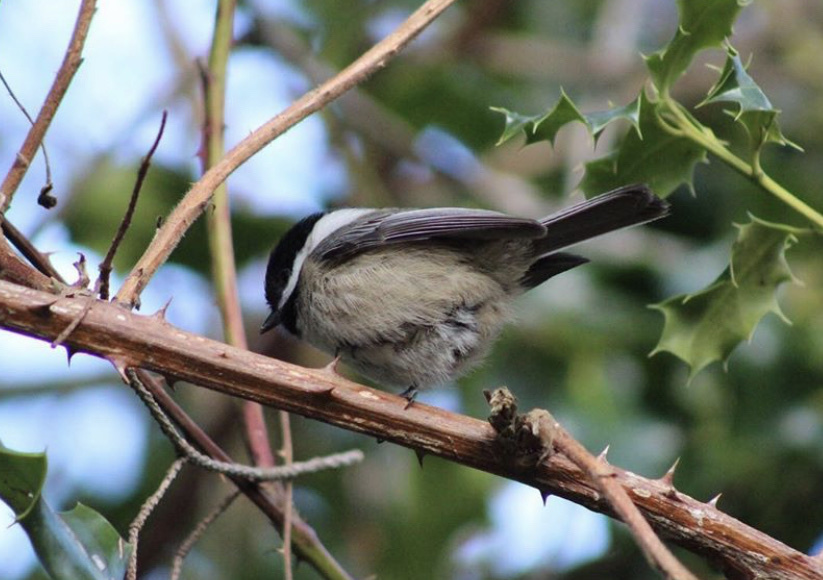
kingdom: Animalia
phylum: Chordata
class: Aves
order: Passeriformes
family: Paridae
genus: Poecile
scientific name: Poecile atricapillus
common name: Black-capped chickadee
